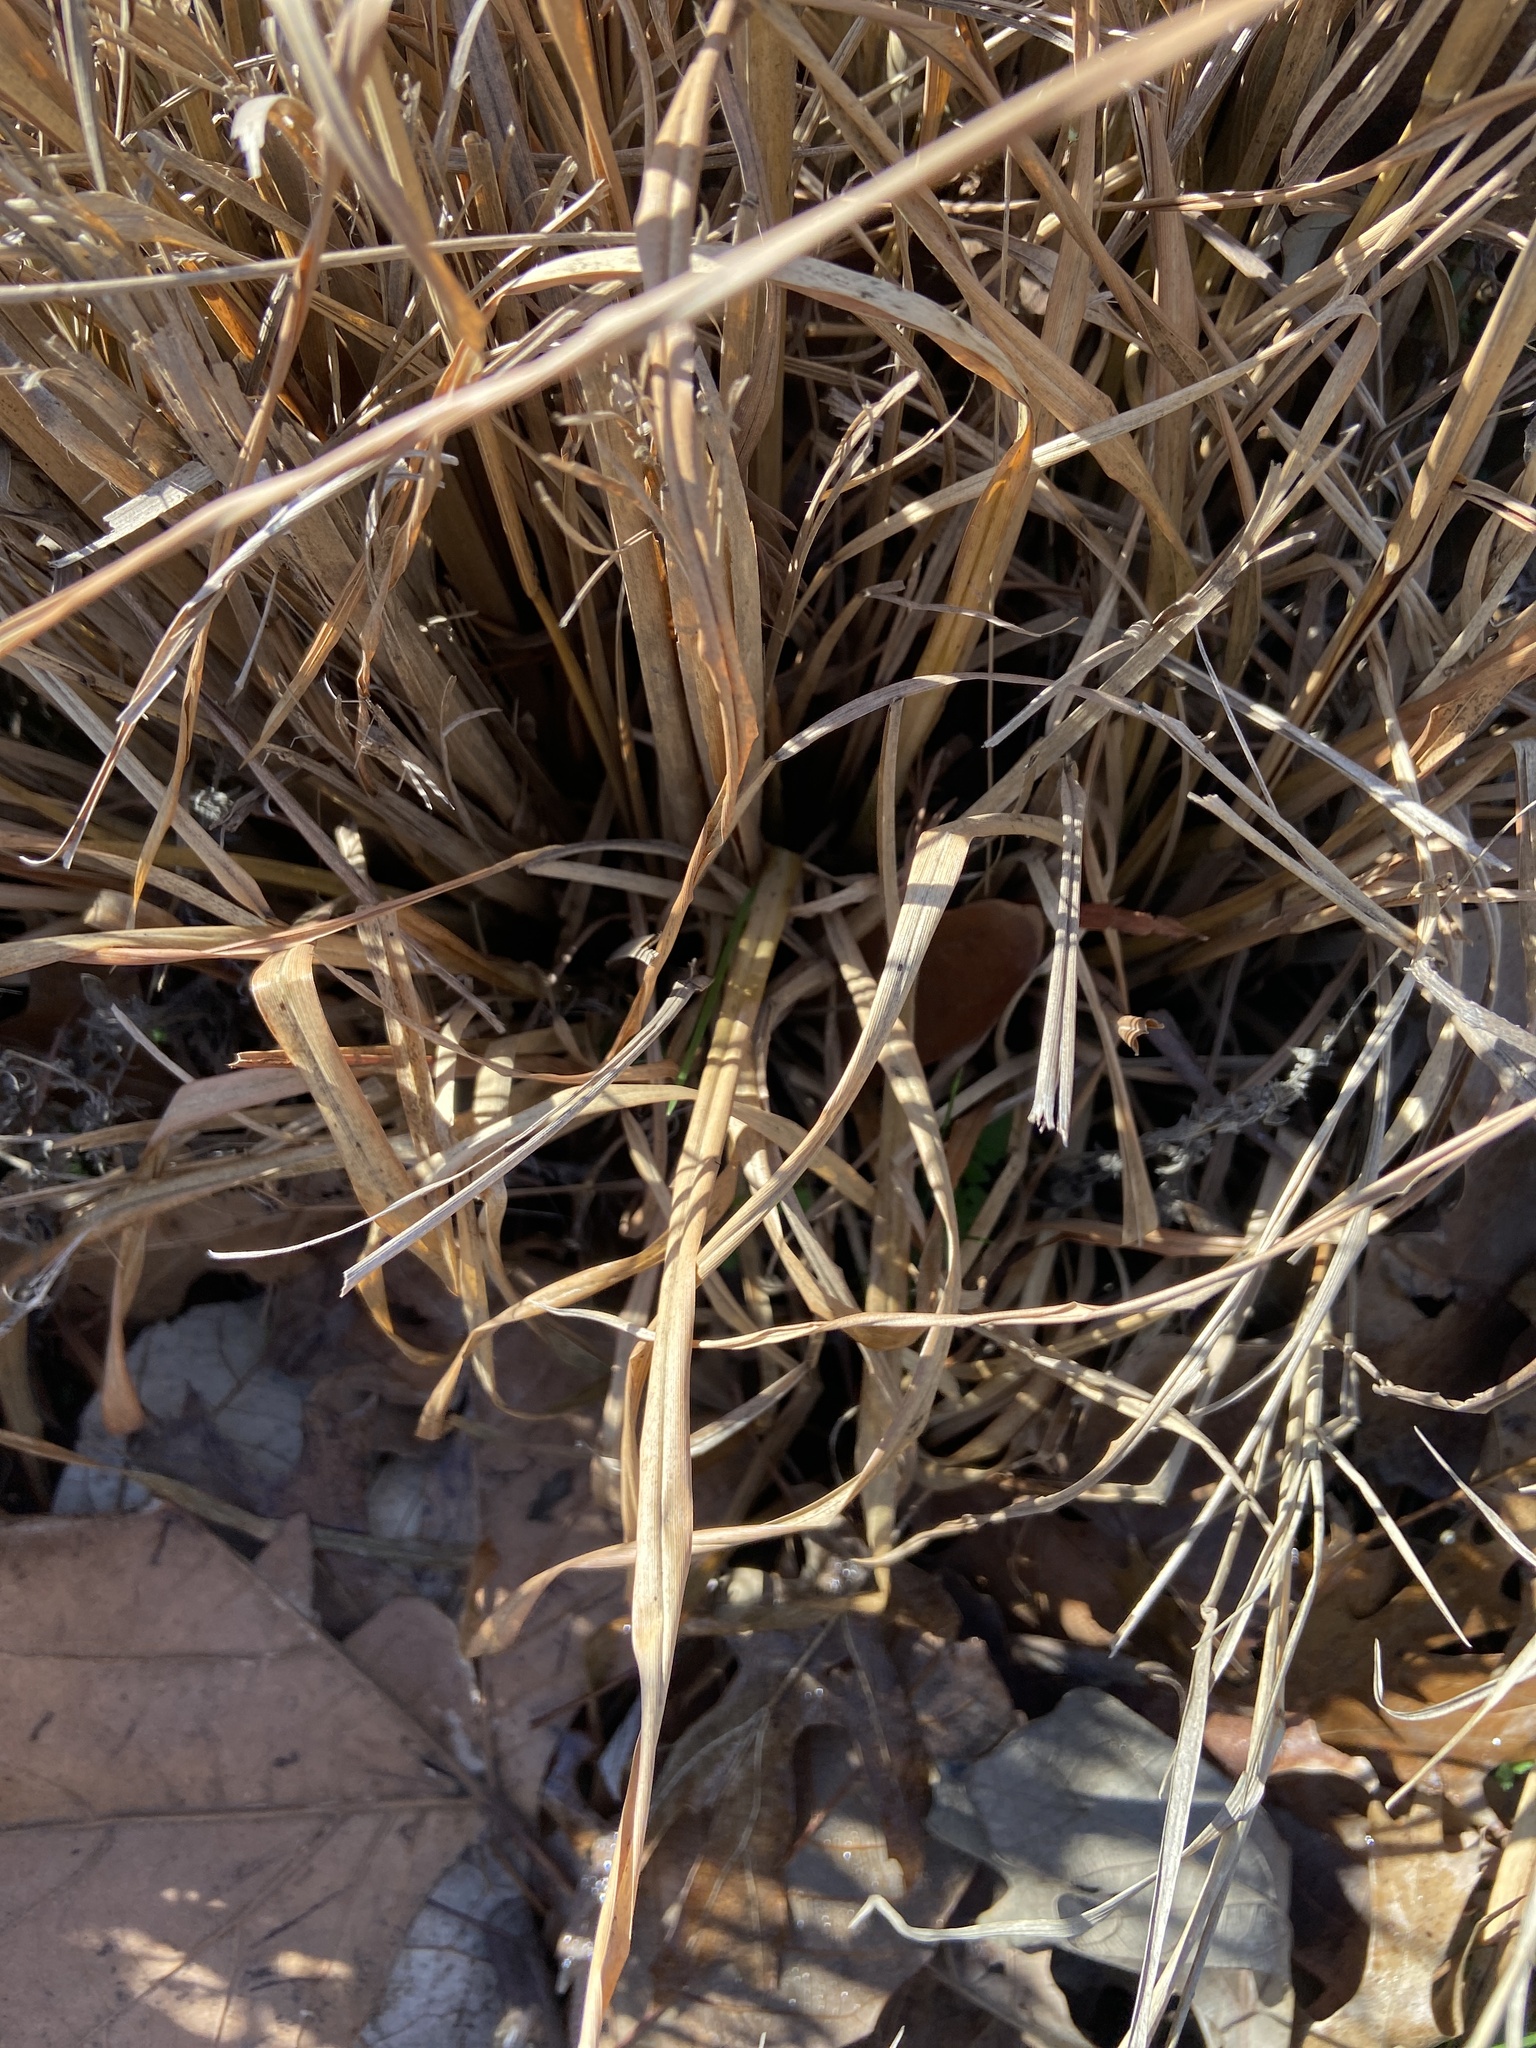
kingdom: Plantae
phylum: Tracheophyta
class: Liliopsida
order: Poales
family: Poaceae
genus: Andropogon
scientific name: Andropogon tenuispatheus
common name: Bushy bluestem
